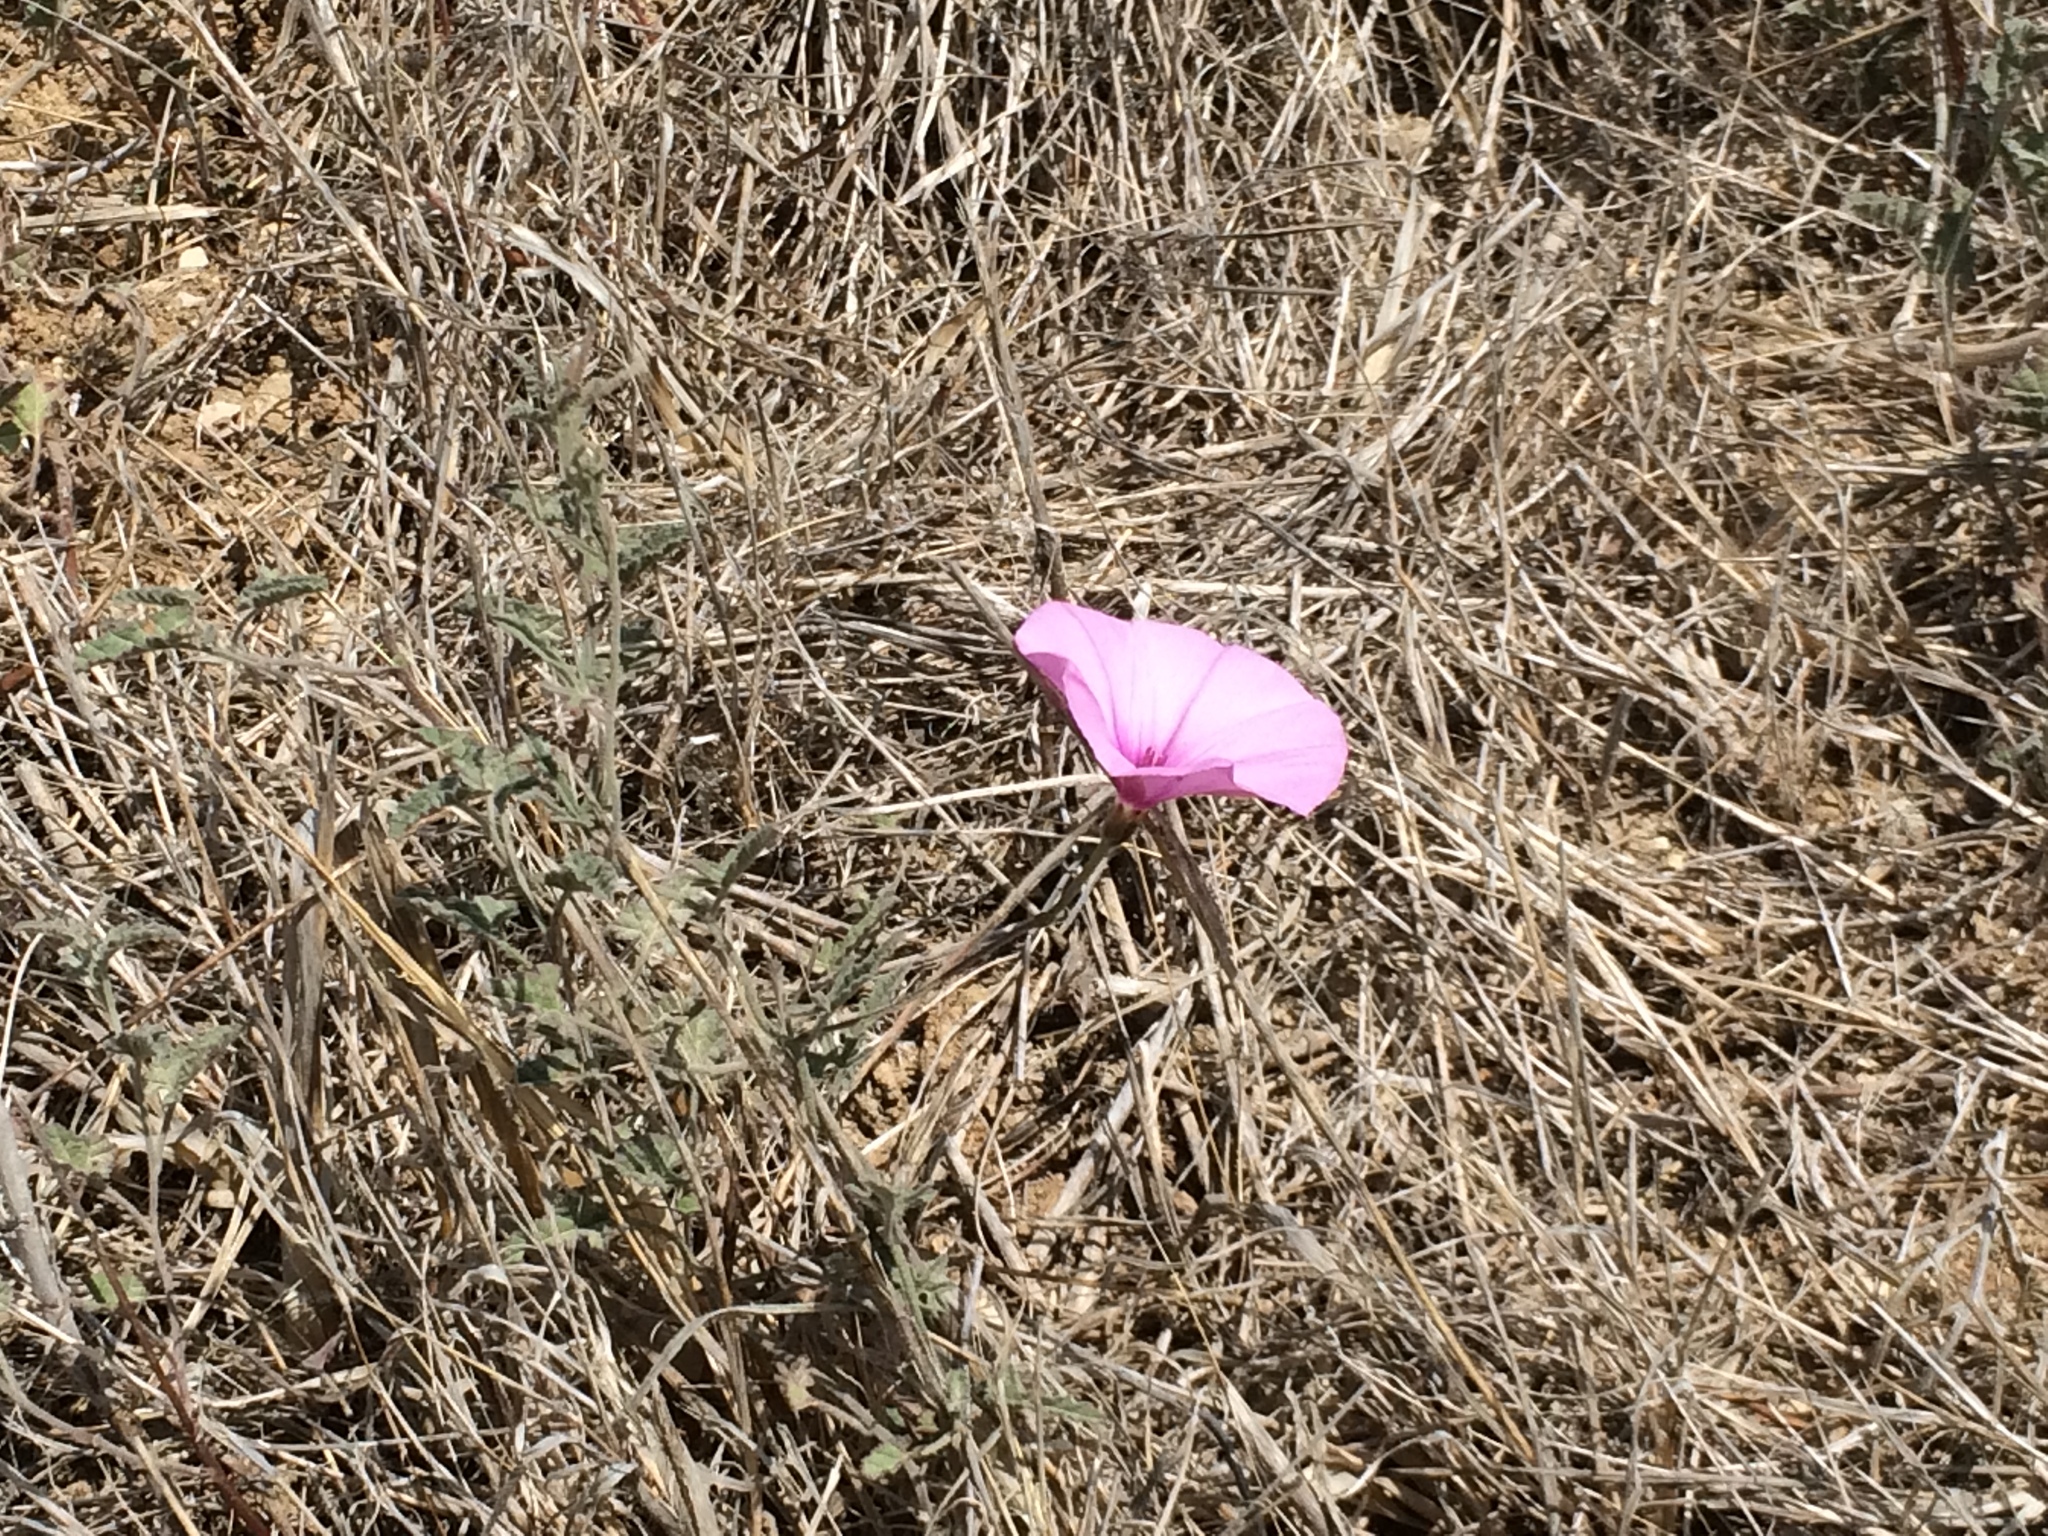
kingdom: Plantae
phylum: Tracheophyta
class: Magnoliopsida
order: Solanales
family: Convolvulaceae
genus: Convolvulus
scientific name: Convolvulus althaeoides
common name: Mallow bindweed
